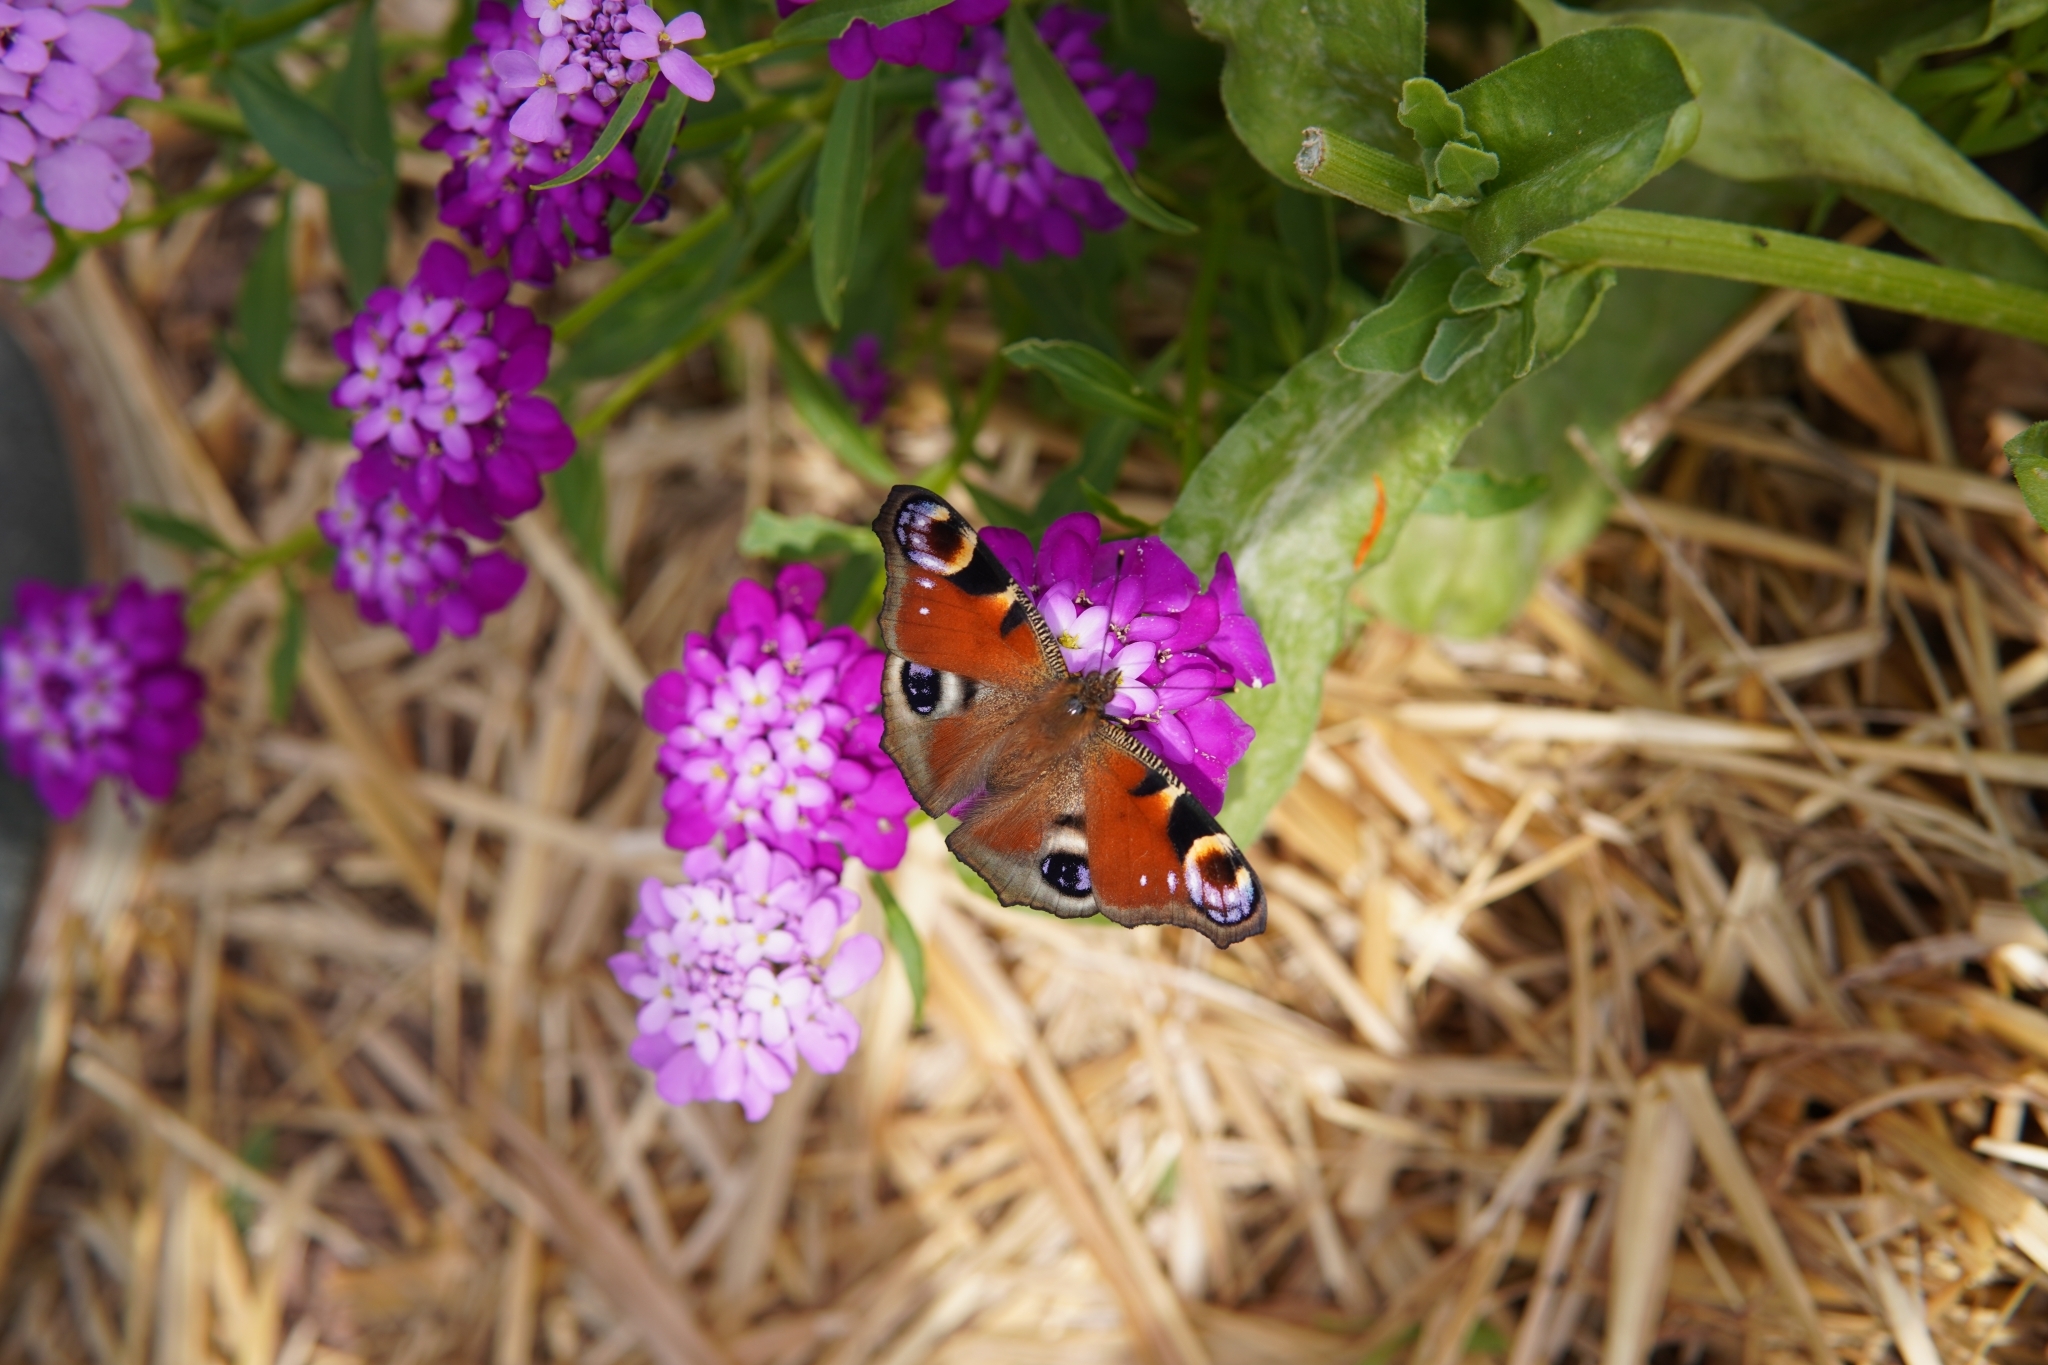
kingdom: Animalia
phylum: Arthropoda
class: Insecta
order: Lepidoptera
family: Nymphalidae
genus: Aglais
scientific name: Aglais io
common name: Peacock
